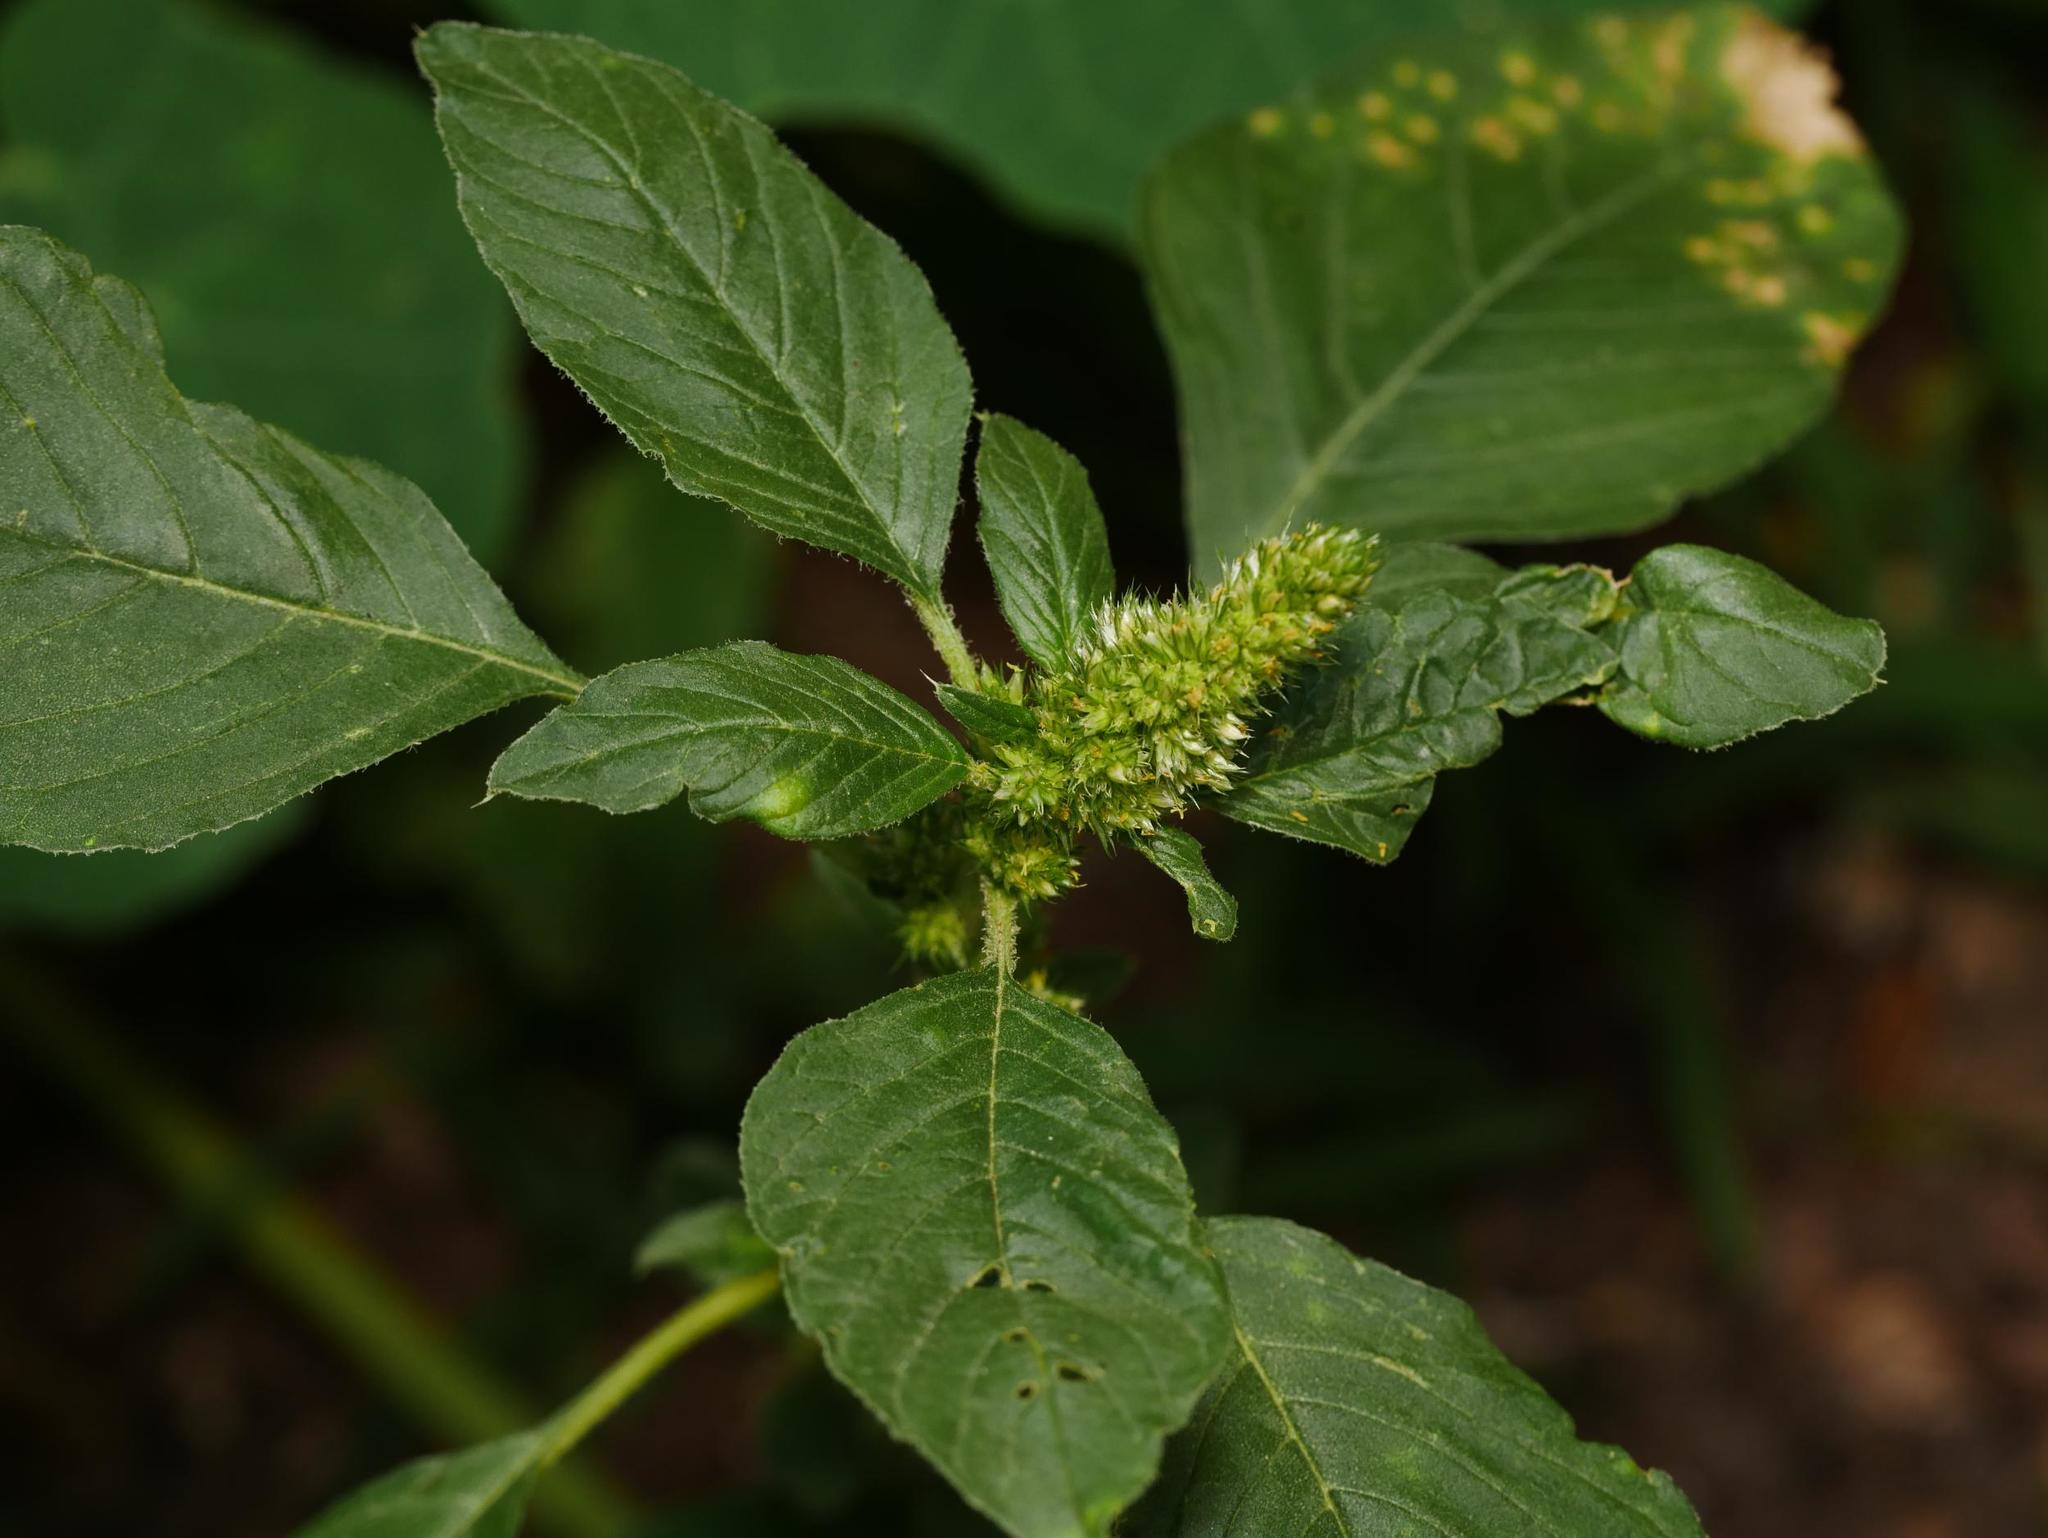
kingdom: Plantae
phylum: Tracheophyta
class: Magnoliopsida
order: Caryophyllales
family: Amaranthaceae
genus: Amaranthus
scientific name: Amaranthus retroflexus
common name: Redroot amaranth
